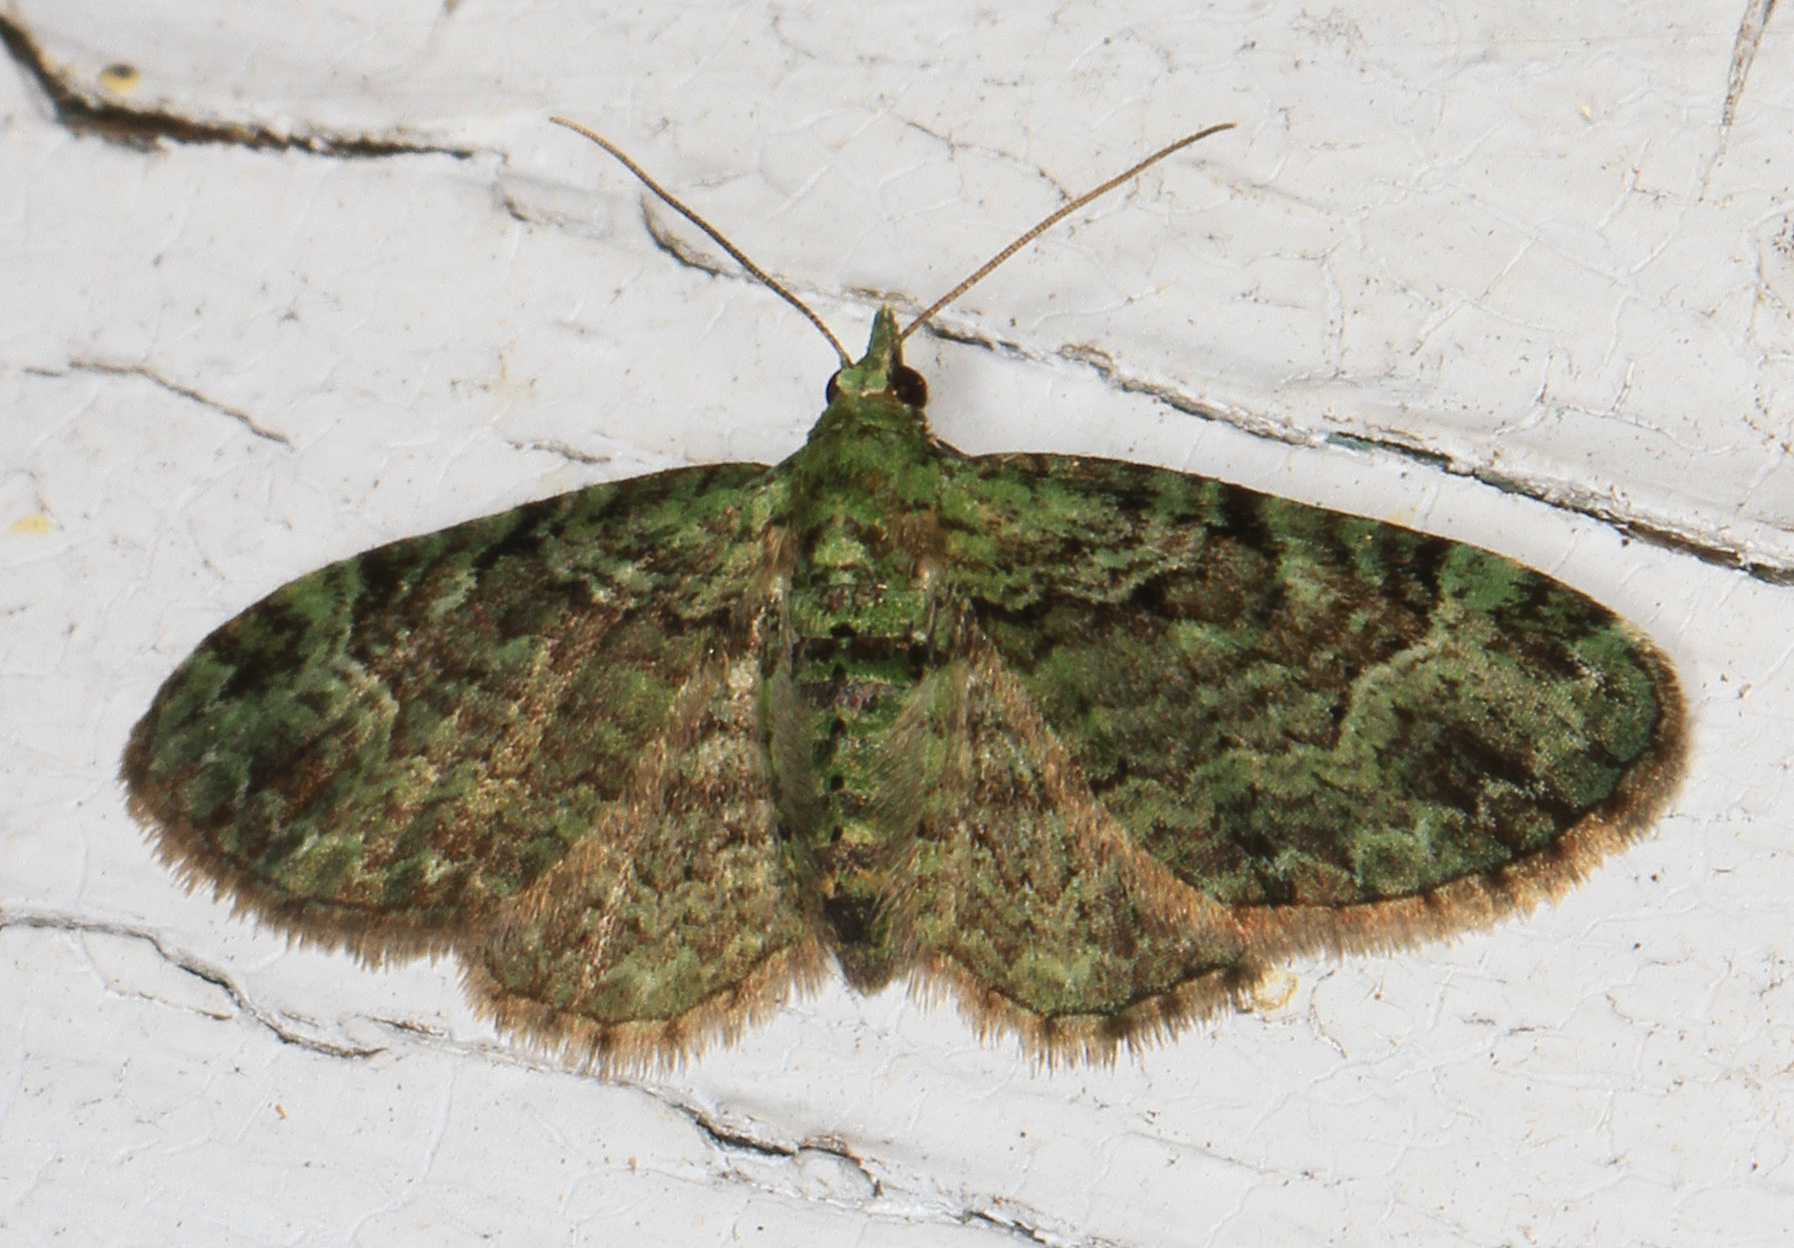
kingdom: Animalia
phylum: Arthropoda
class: Insecta
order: Lepidoptera
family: Geometridae
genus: Pasiphila
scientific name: Pasiphila rectangulata
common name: Green pug
